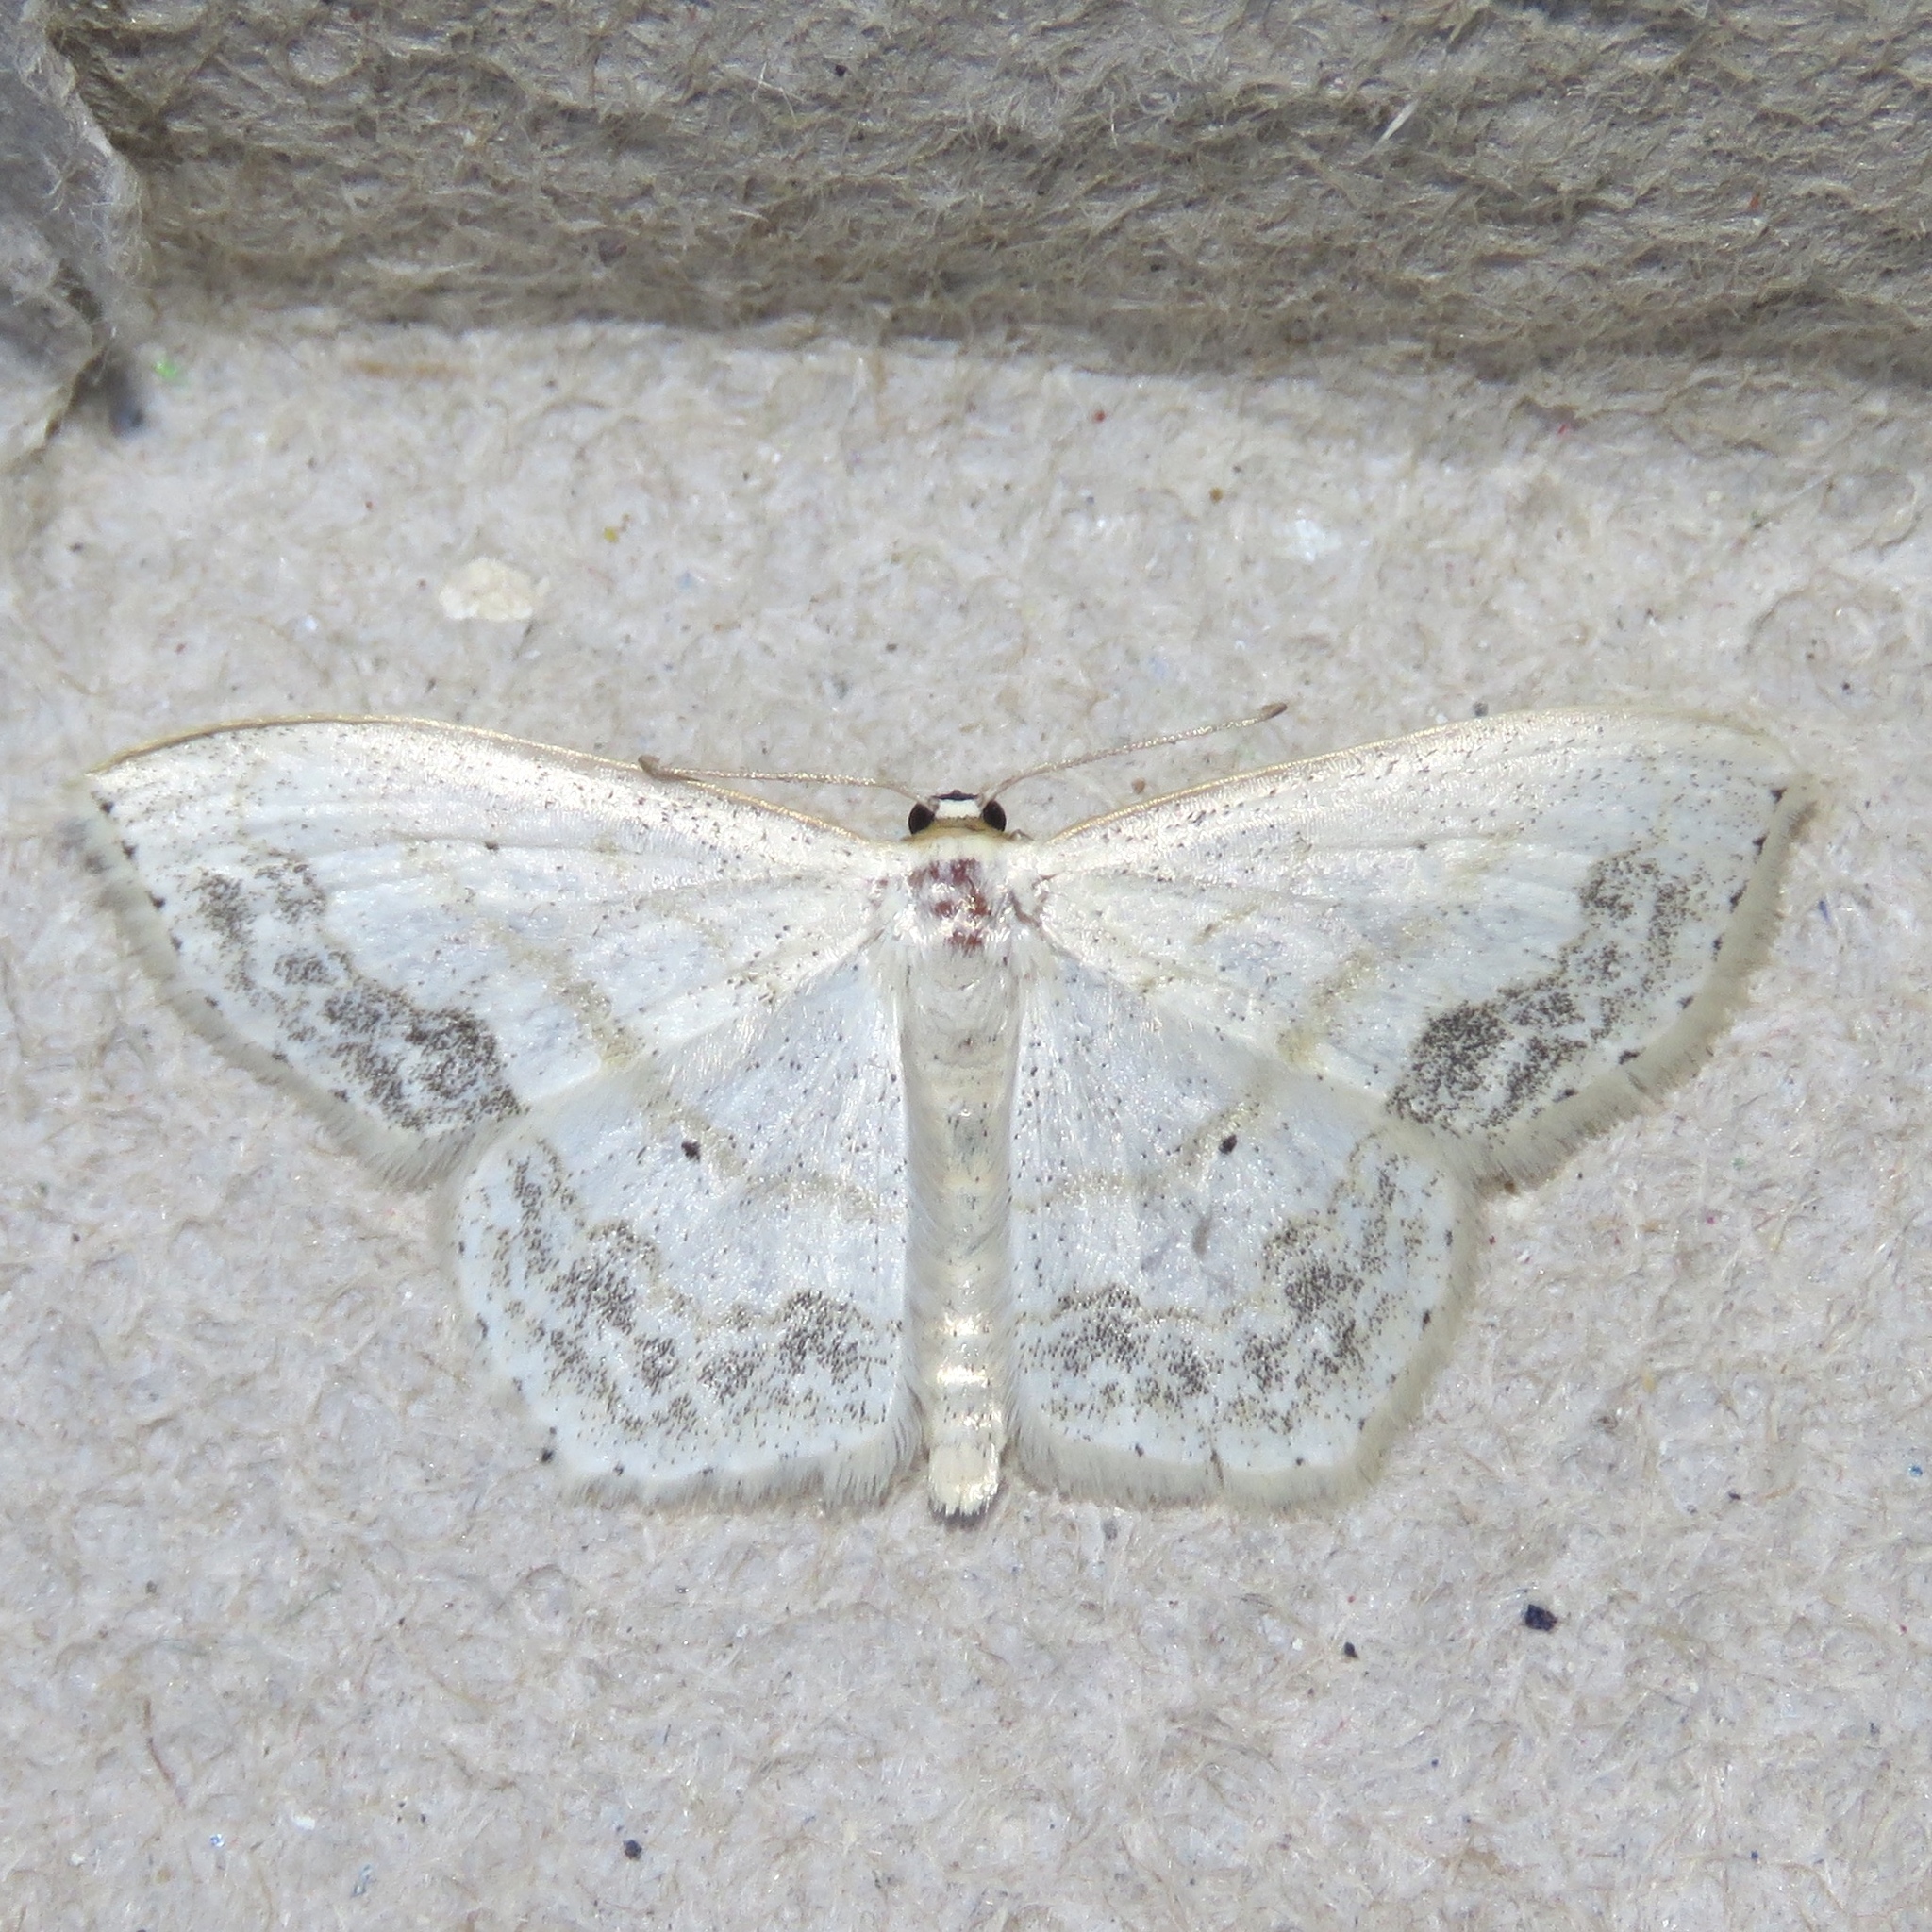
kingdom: Animalia
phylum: Arthropoda
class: Insecta
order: Lepidoptera
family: Geometridae
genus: Scopula
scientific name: Scopula limboundata
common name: Large lace border
